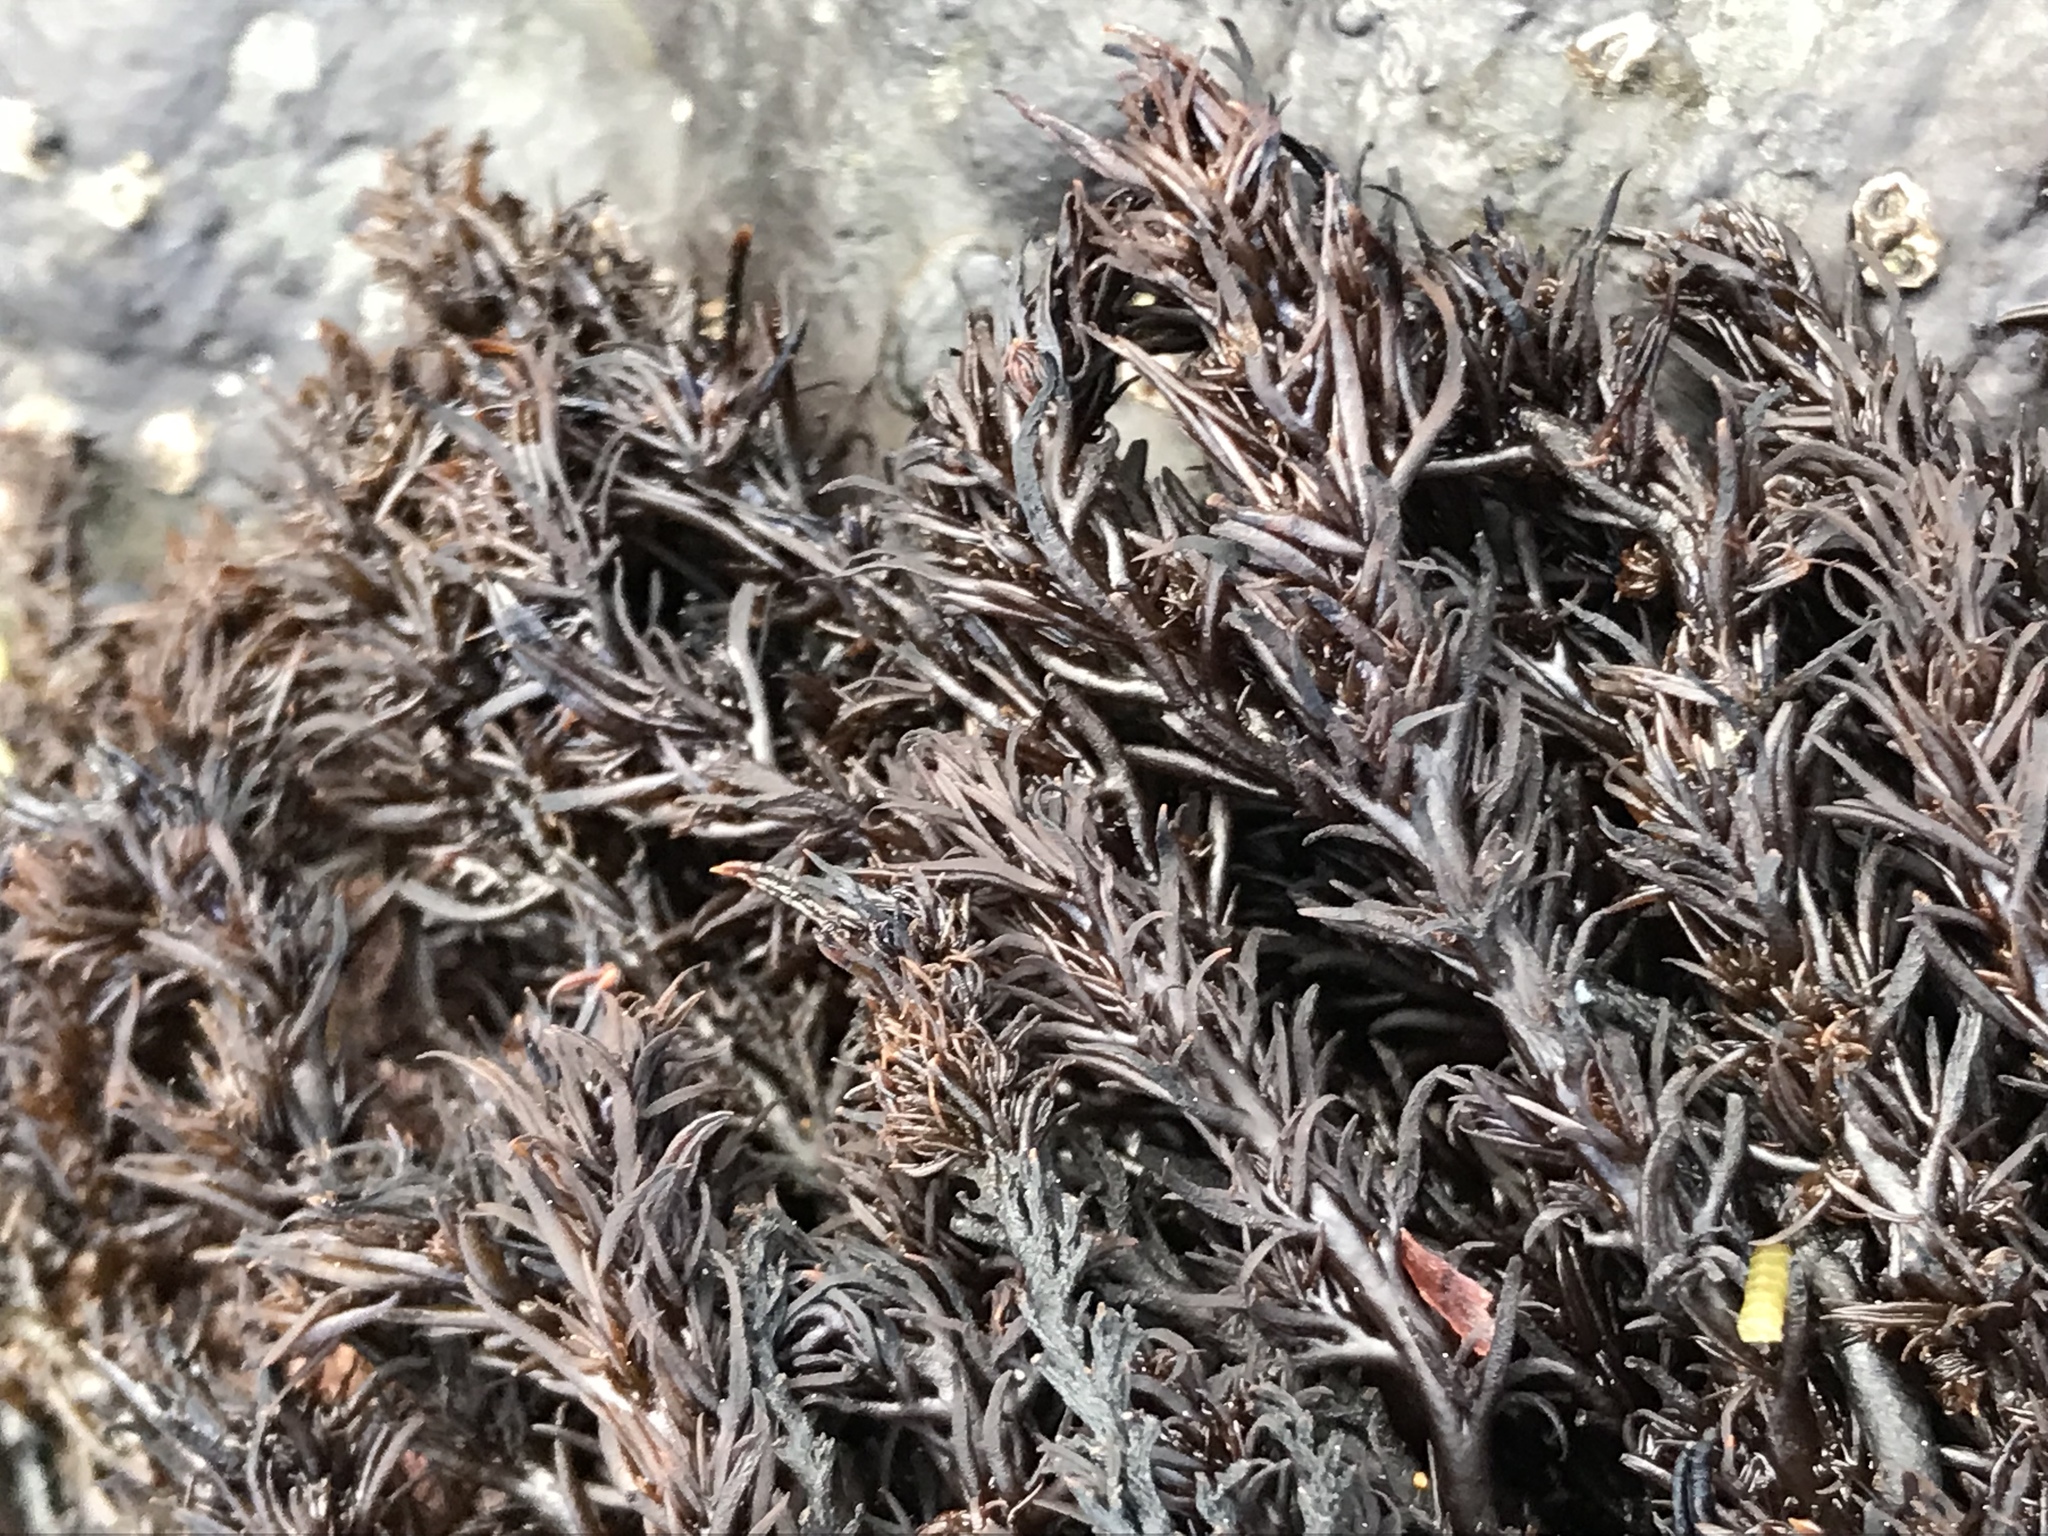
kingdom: Plantae
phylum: Rhodophyta
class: Florideophyceae
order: Ceramiales
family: Rhodomelaceae
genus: Neorhodomela
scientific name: Neorhodomela larix
